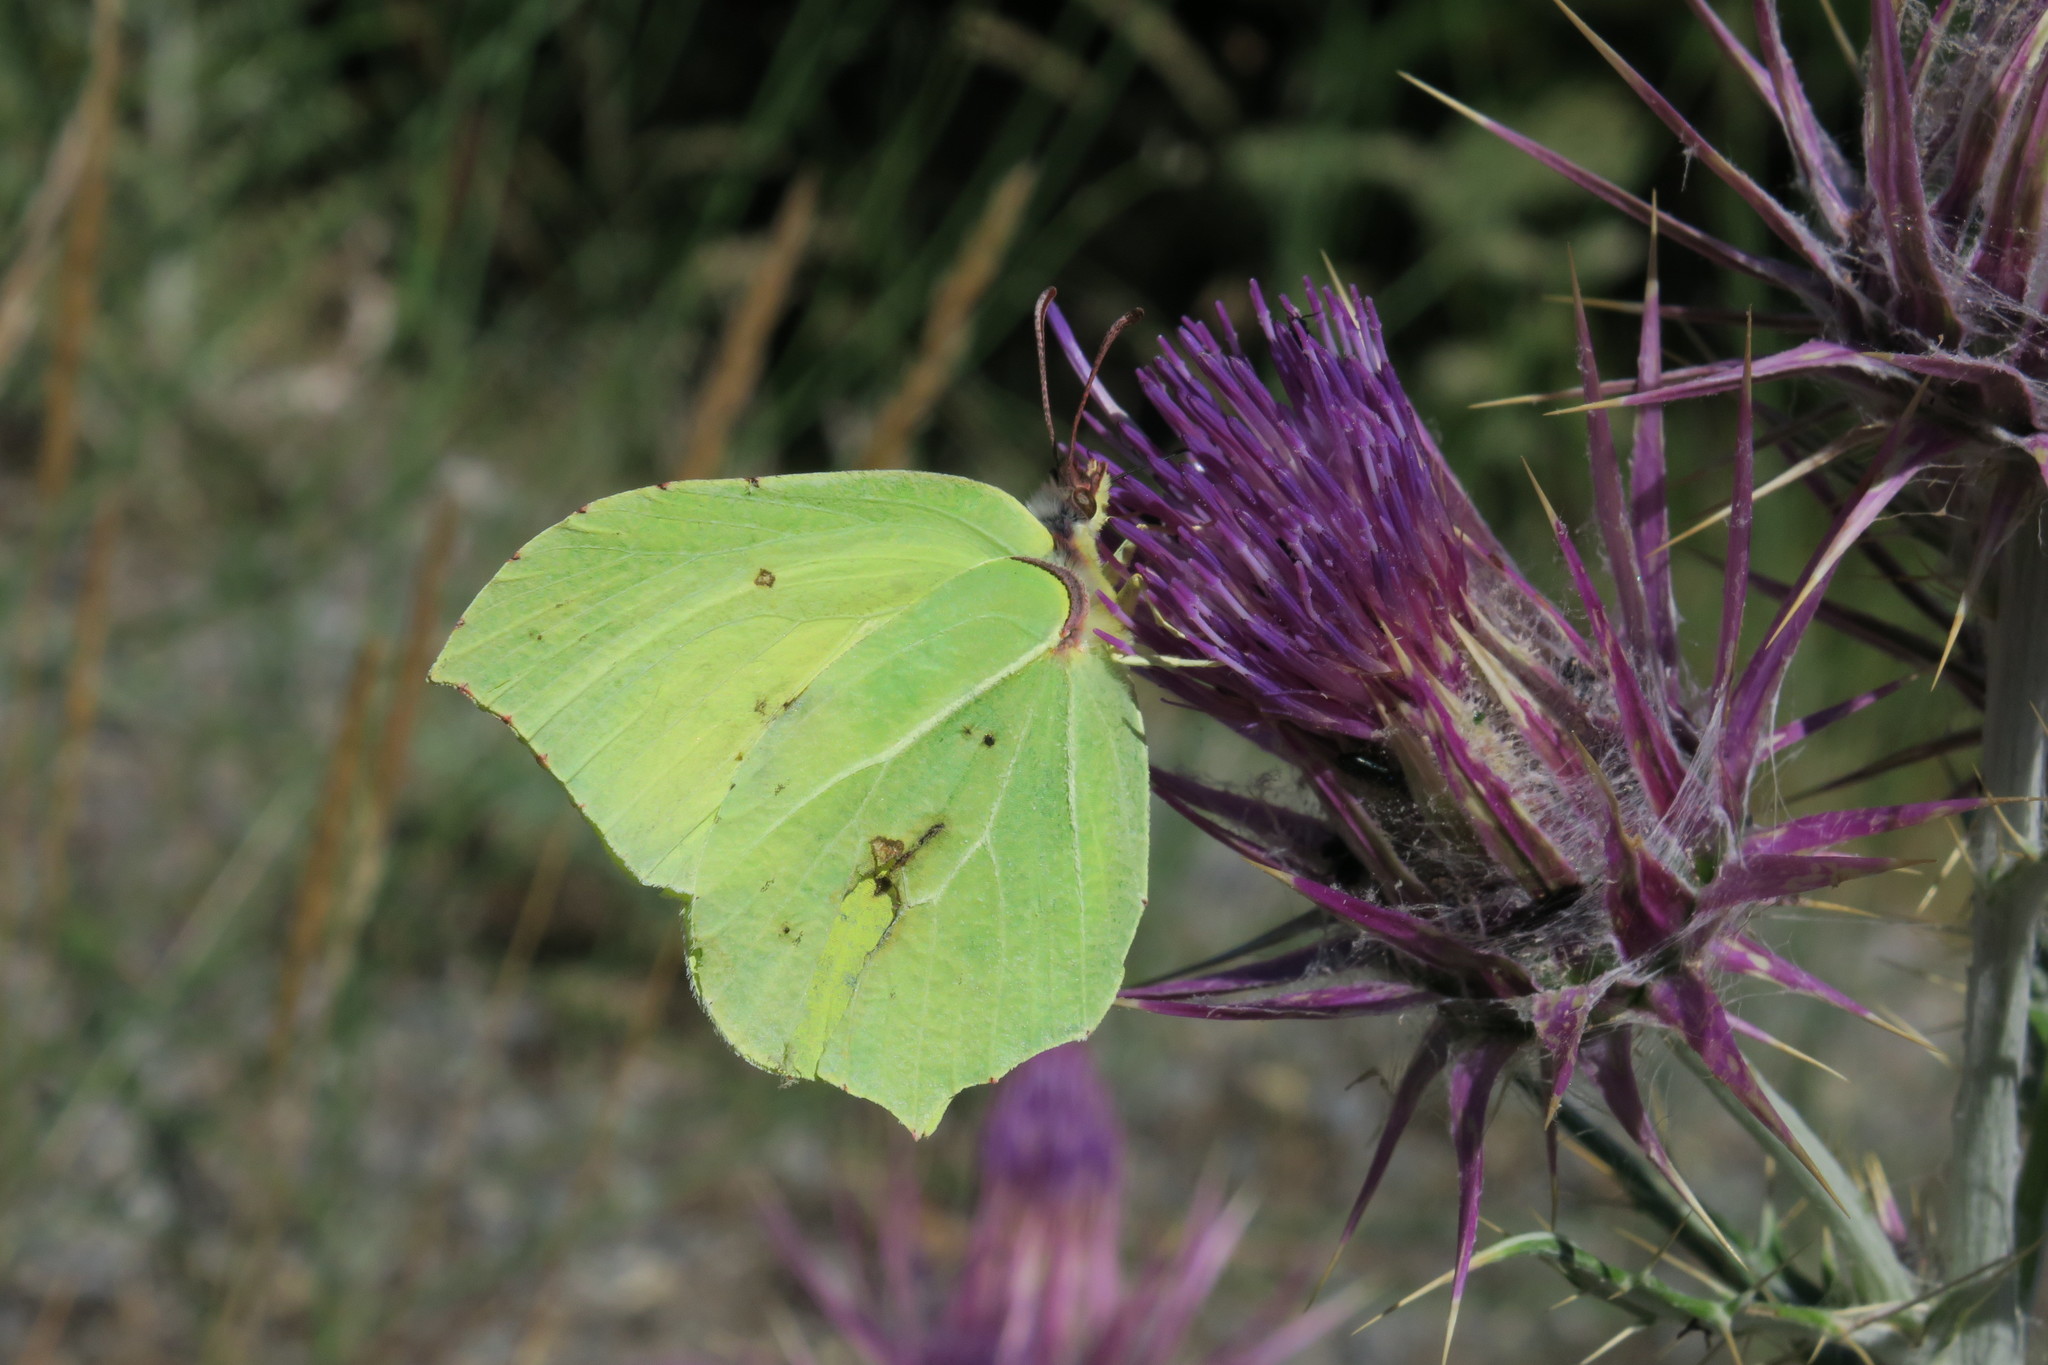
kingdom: Animalia
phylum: Arthropoda
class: Insecta
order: Lepidoptera
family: Pieridae
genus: Gonepteryx
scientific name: Gonepteryx rhamni
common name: Brimstone
